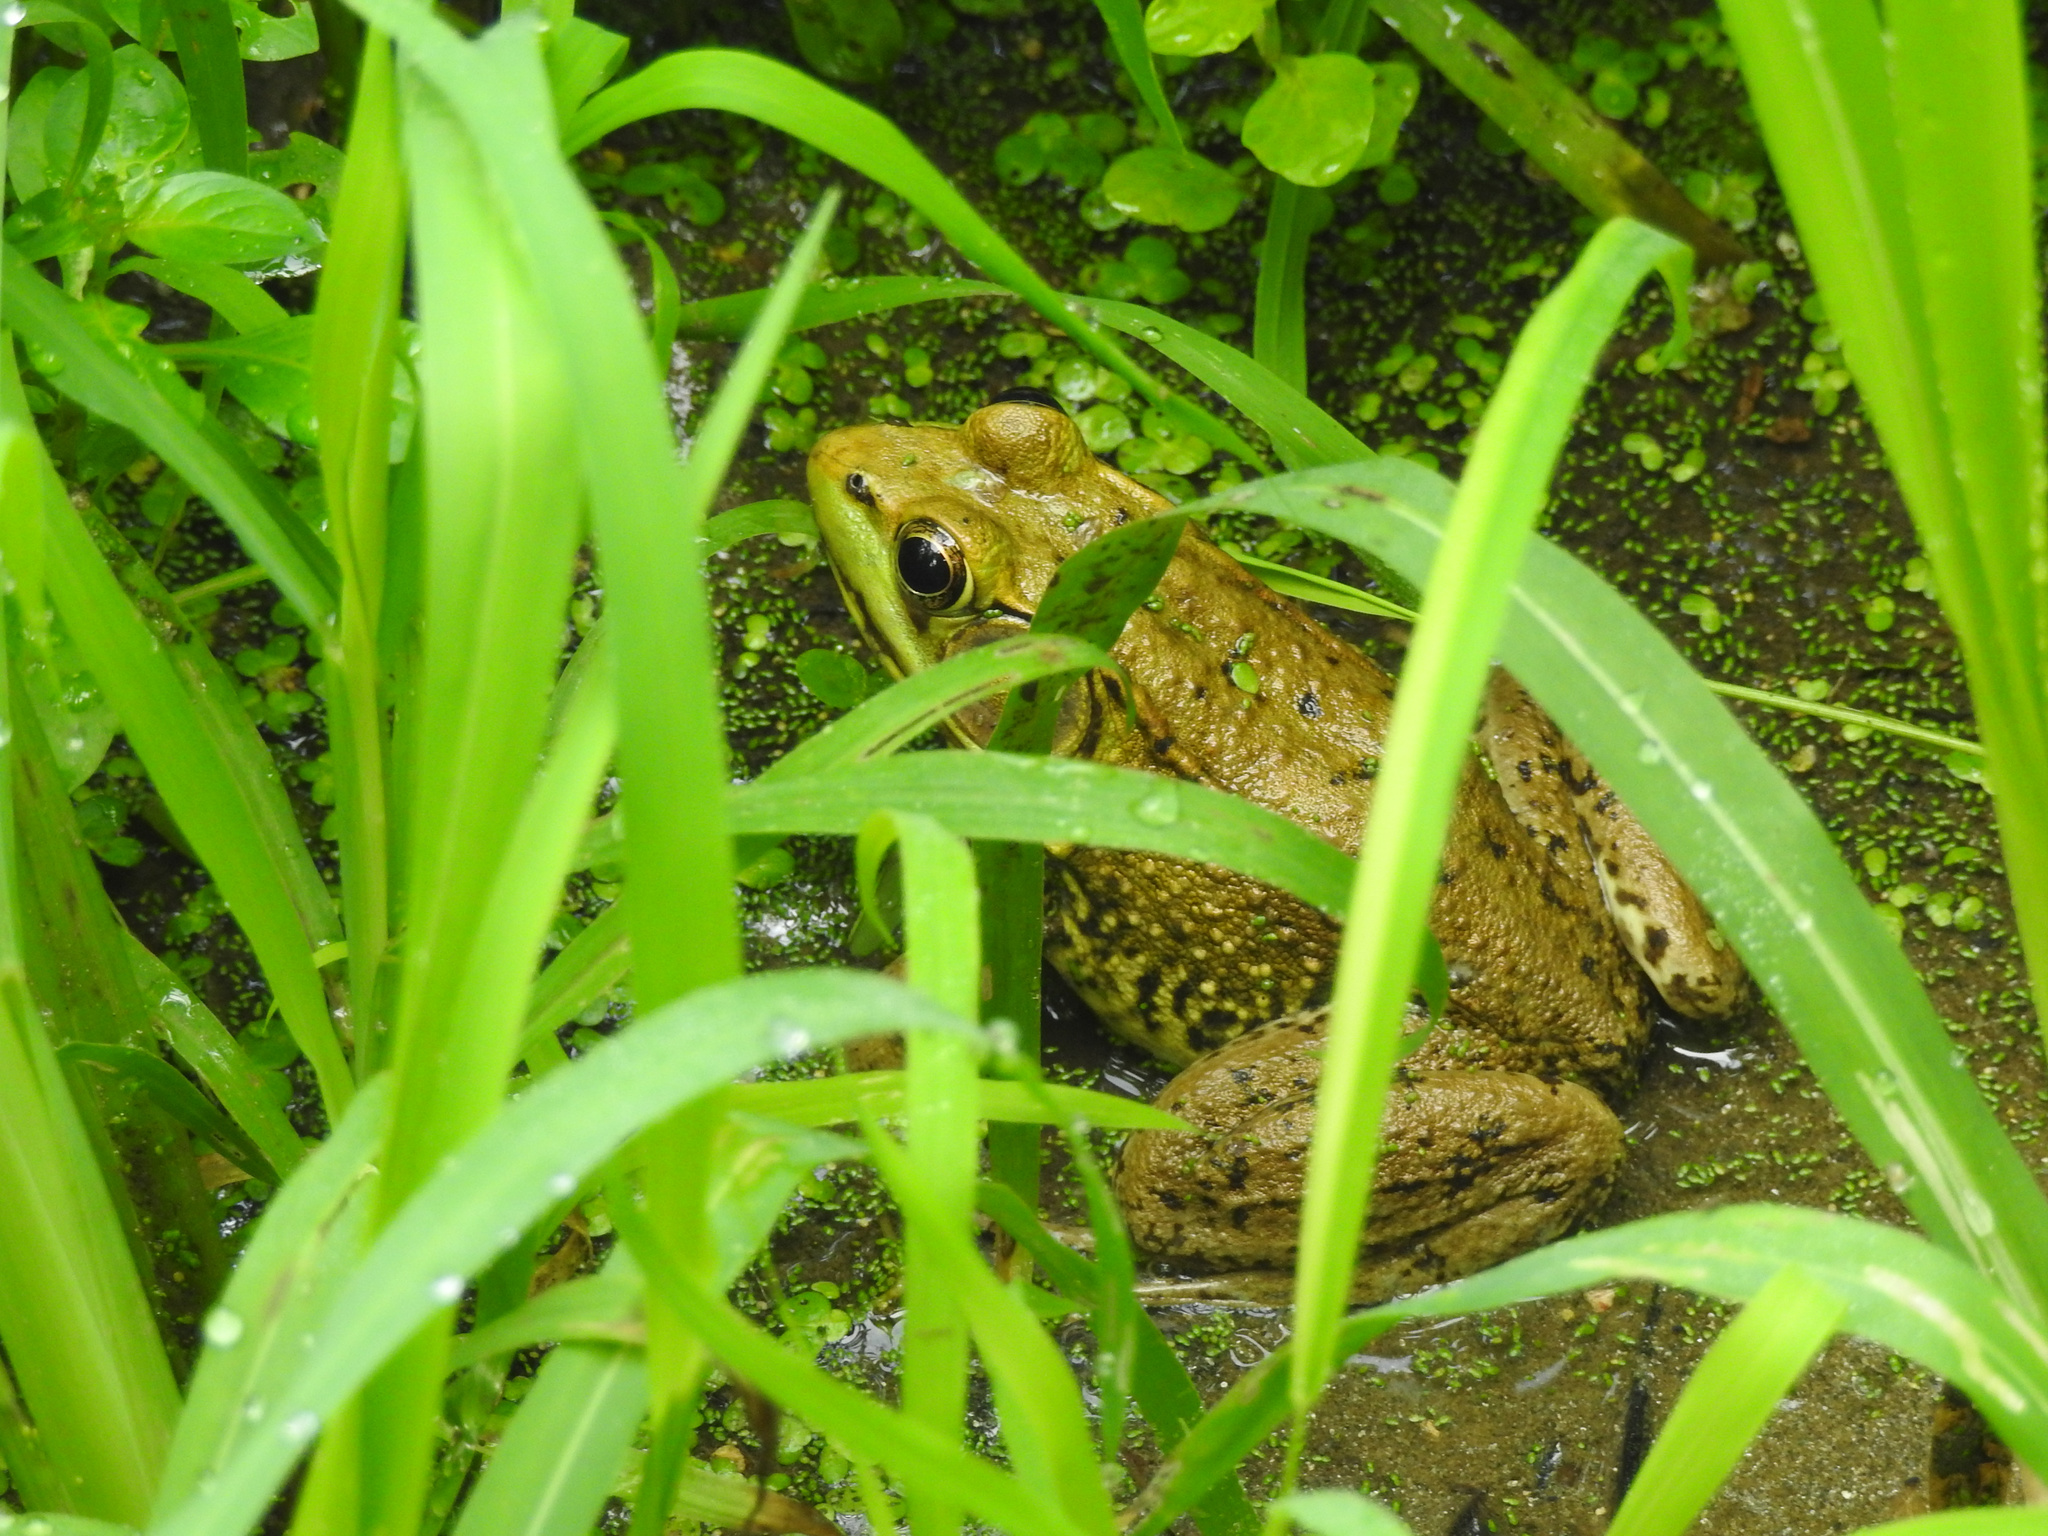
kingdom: Animalia
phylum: Chordata
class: Amphibia
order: Anura
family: Ranidae
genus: Lithobates
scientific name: Lithobates clamitans
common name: Green frog
